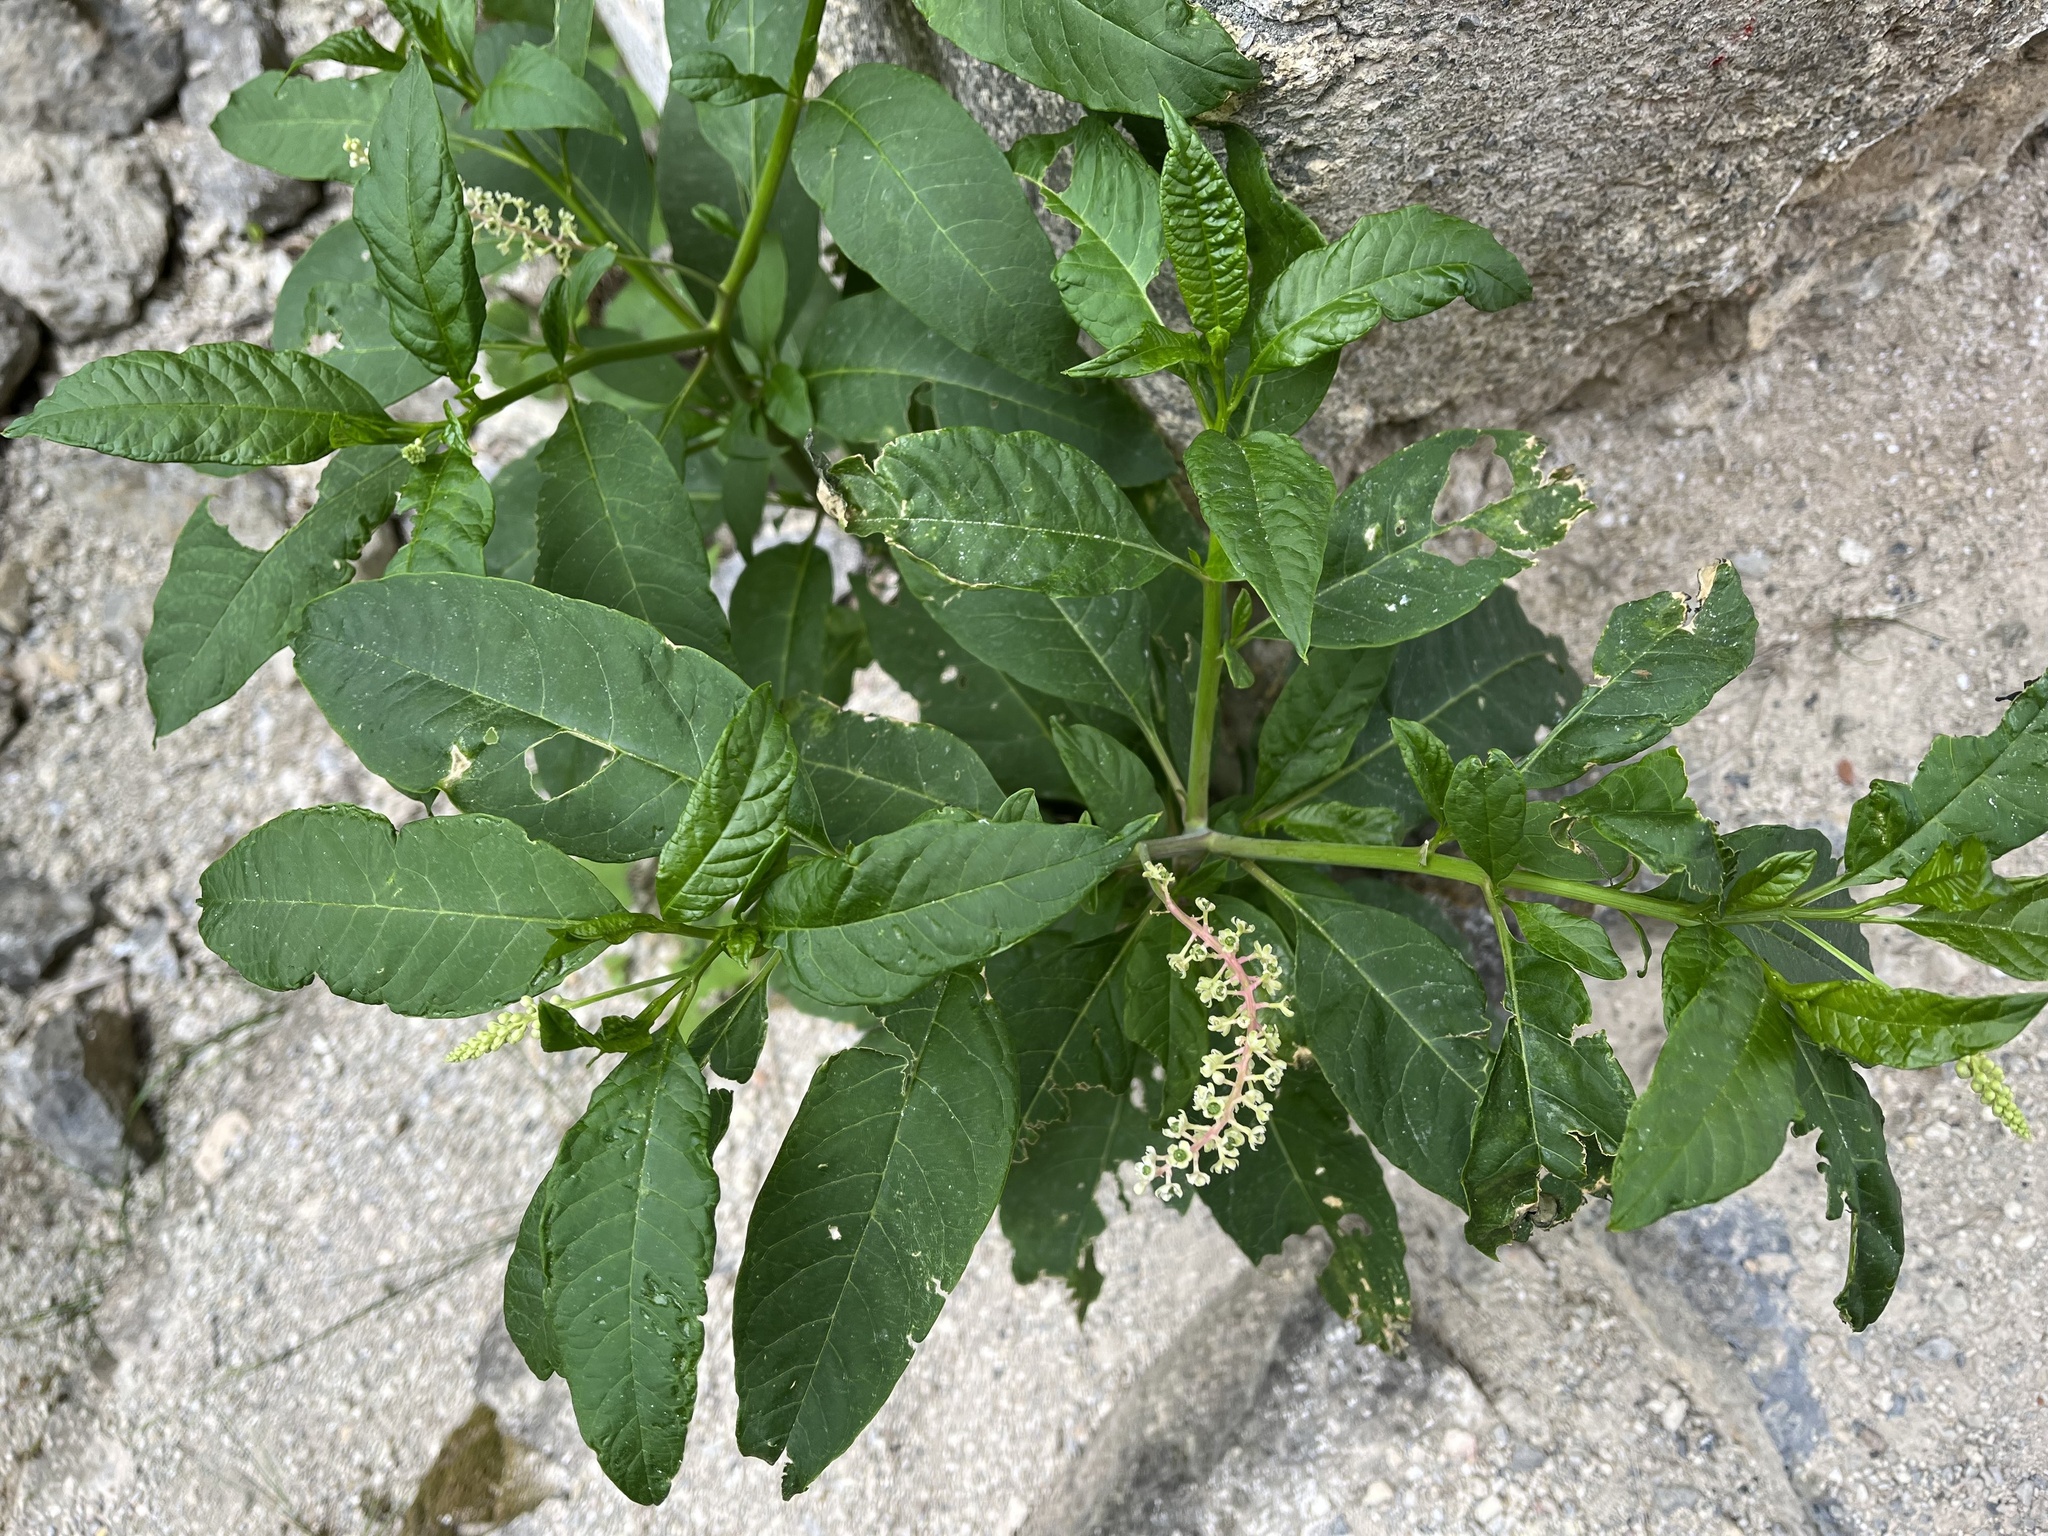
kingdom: Plantae
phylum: Tracheophyta
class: Magnoliopsida
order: Caryophyllales
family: Phytolaccaceae
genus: Phytolacca
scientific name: Phytolacca americana
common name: American pokeweed
